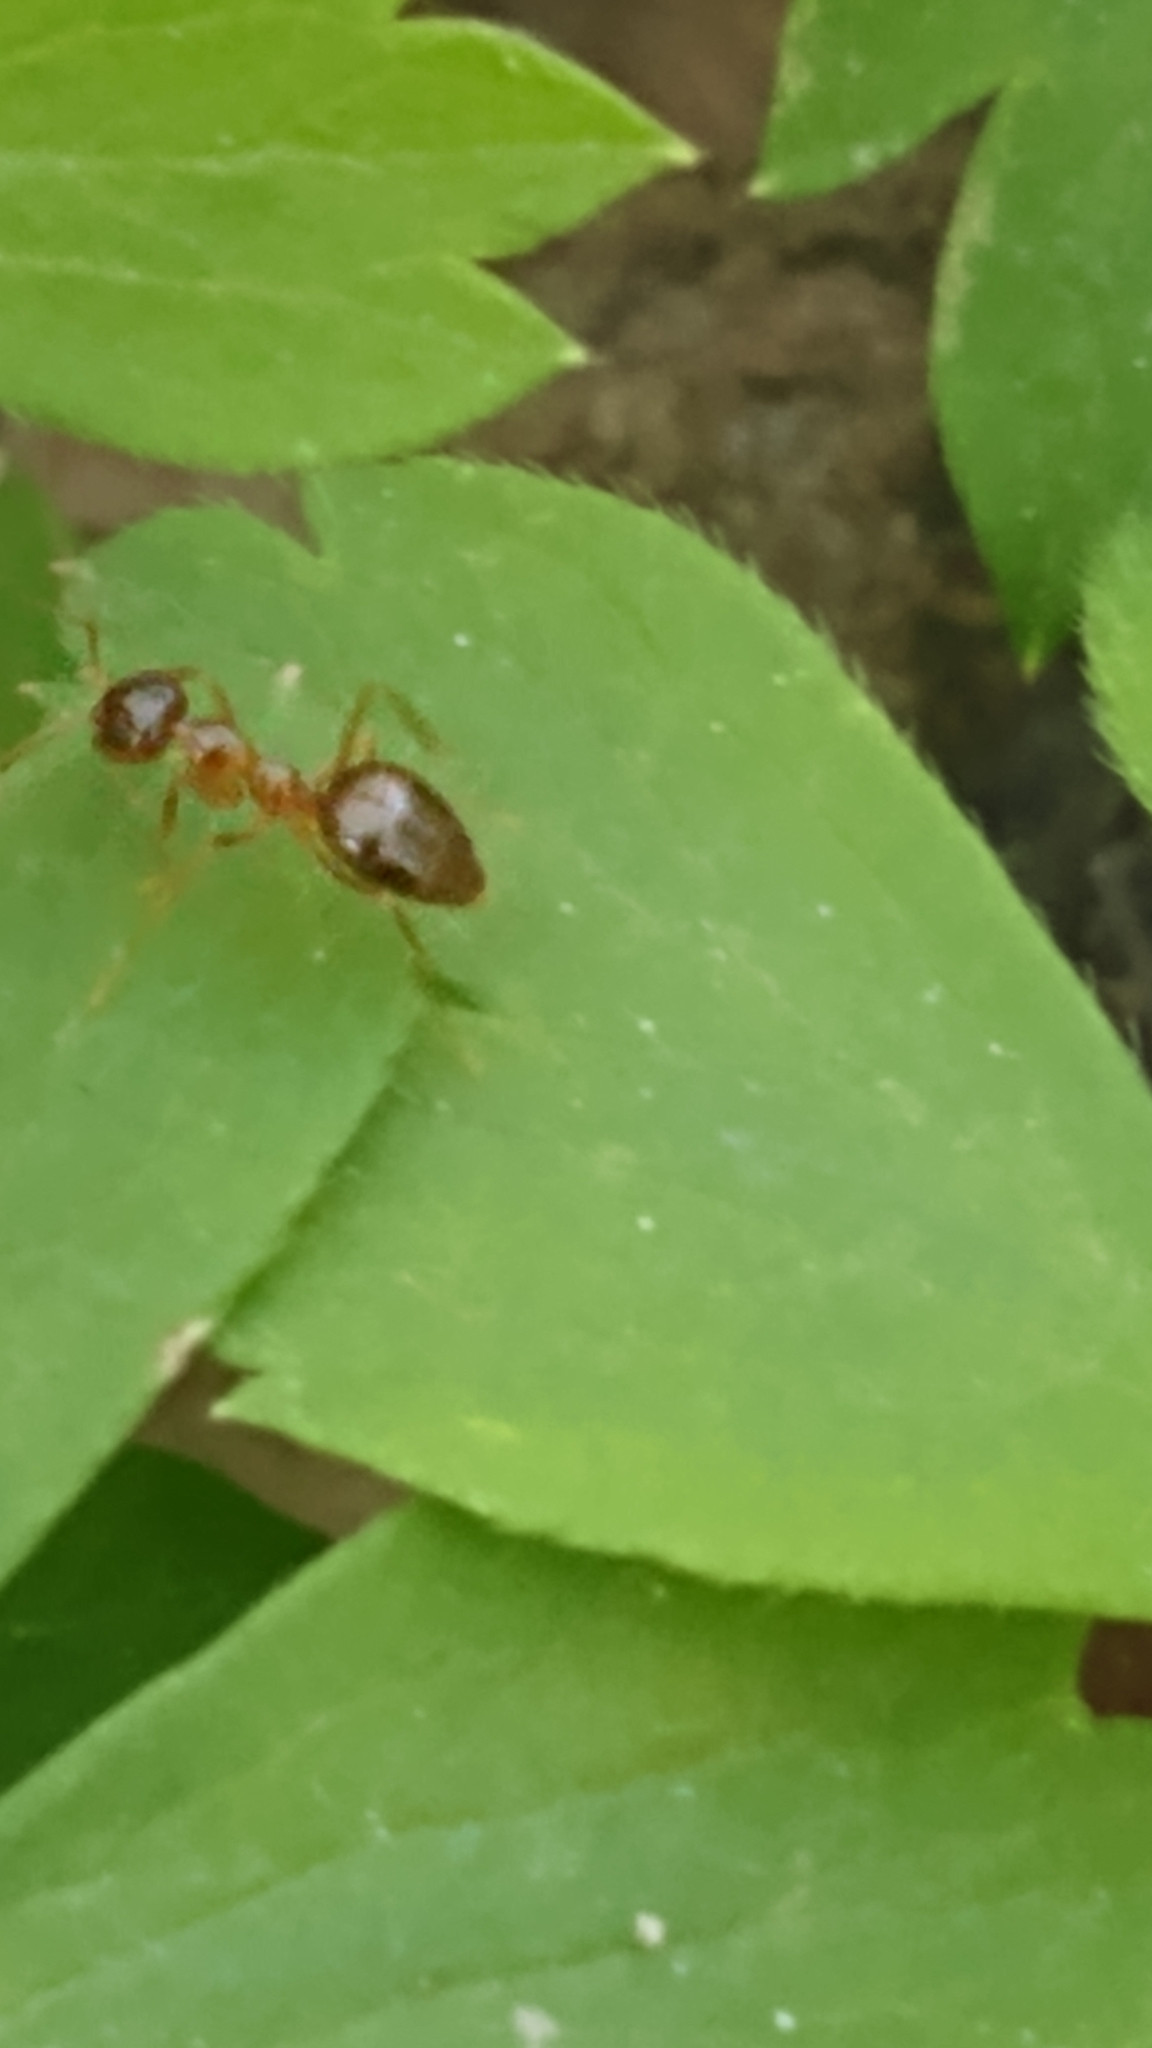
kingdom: Animalia
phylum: Arthropoda
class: Insecta
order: Hymenoptera
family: Formicidae
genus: Prenolepis
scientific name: Prenolepis imparis
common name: Small honey ant
